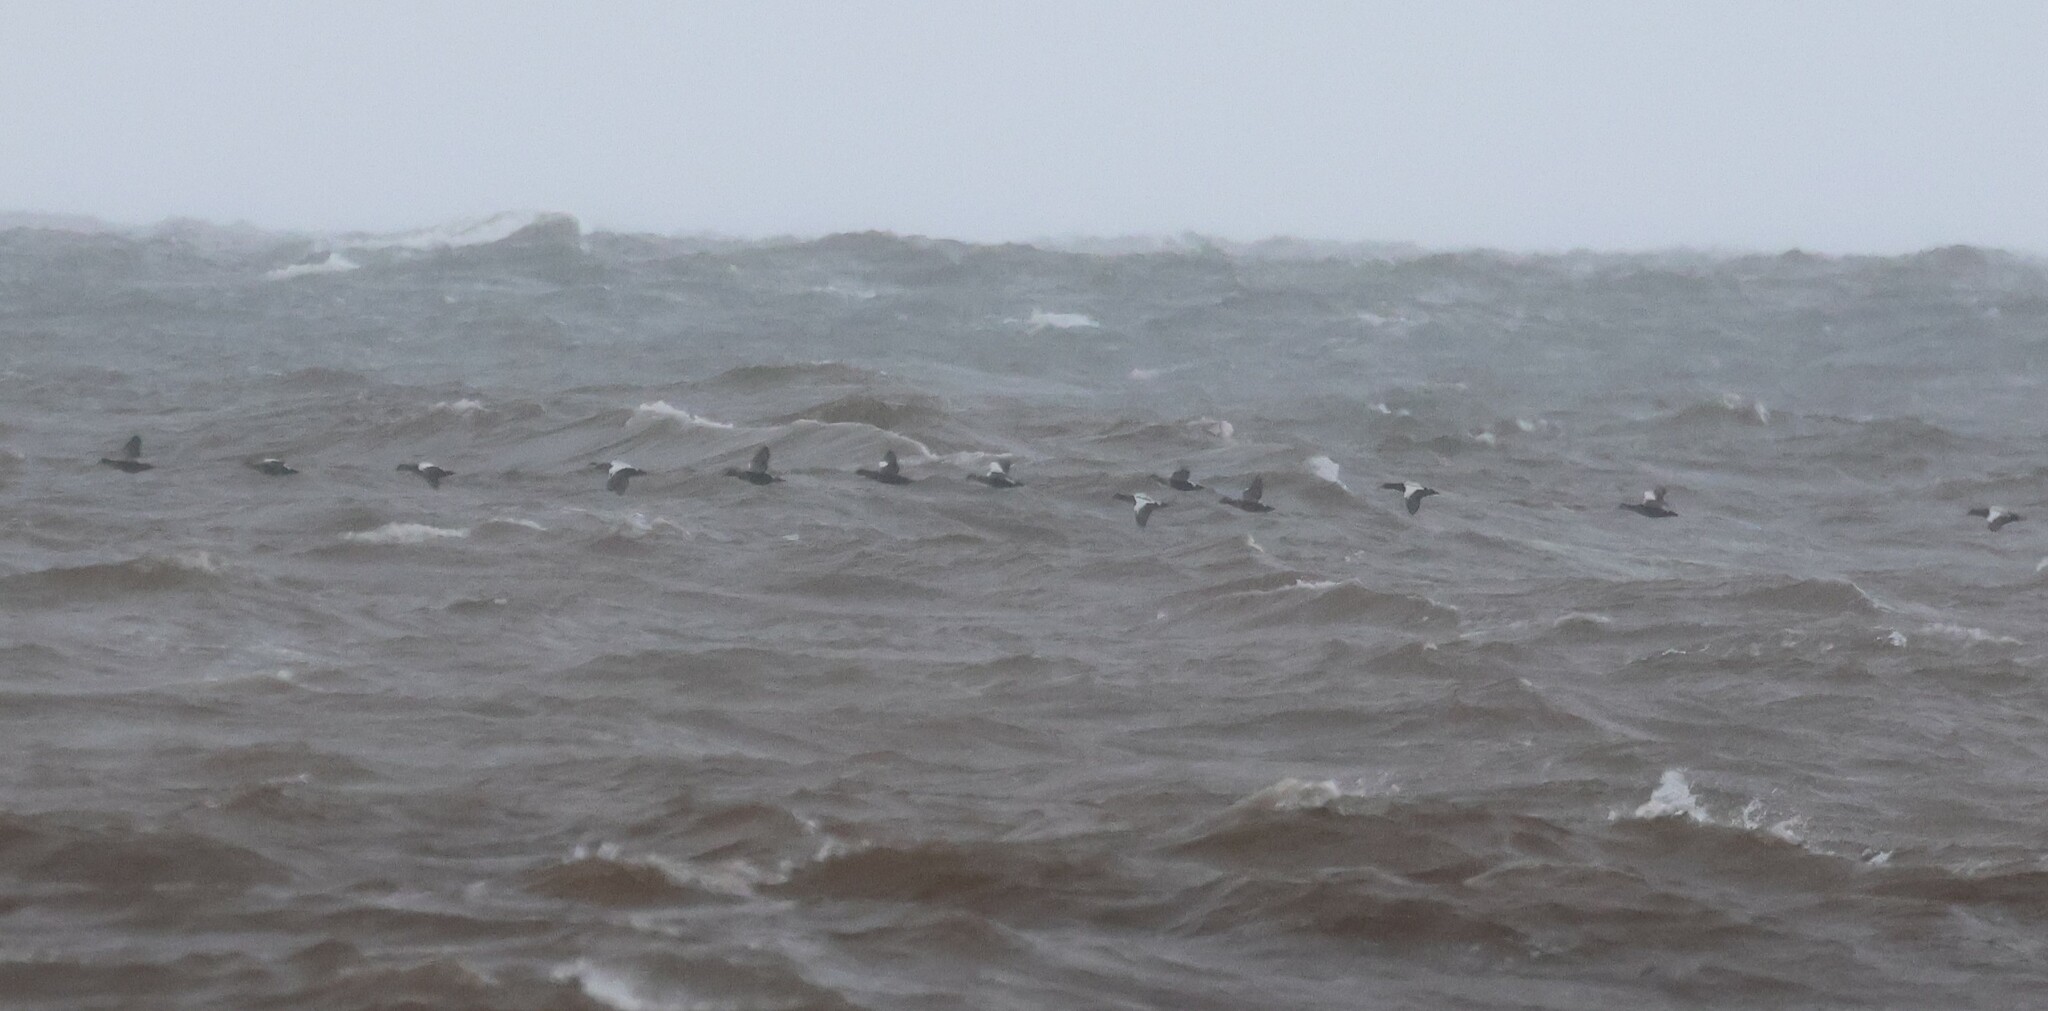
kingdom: Animalia
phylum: Chordata
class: Aves
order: Anseriformes
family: Anatidae
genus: Somateria
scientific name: Somateria mollissima
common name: Common eider
